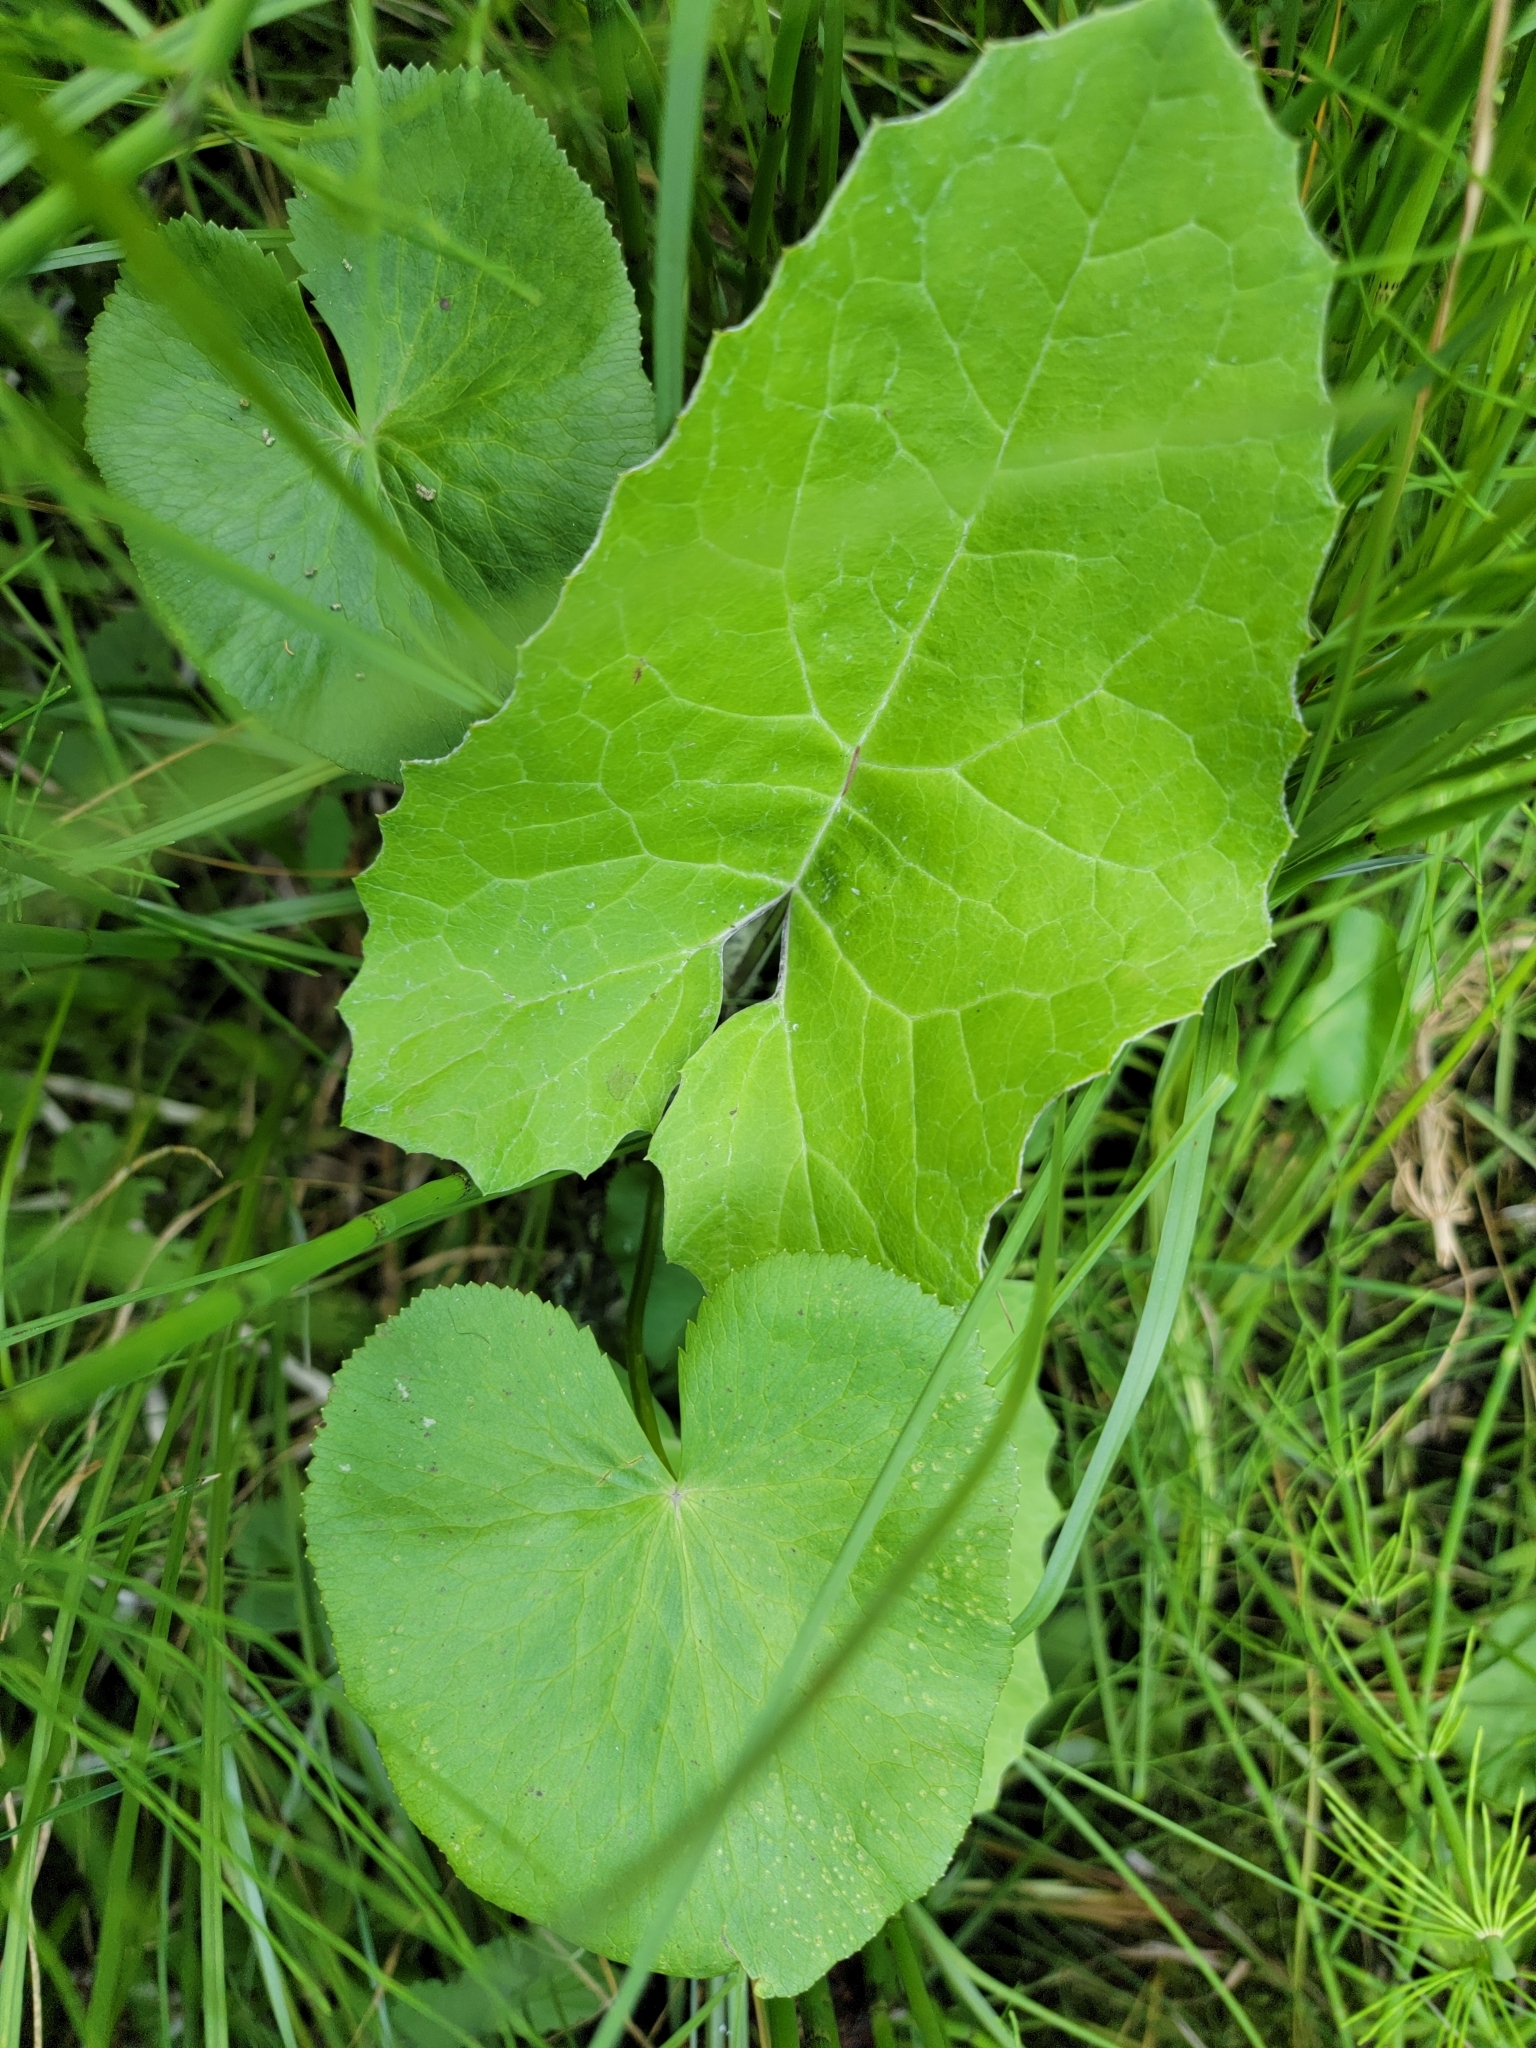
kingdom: Plantae
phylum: Tracheophyta
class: Magnoliopsida
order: Asterales
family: Asteraceae
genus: Petasites
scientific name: Petasites frigidus
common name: Arctic butterbur
